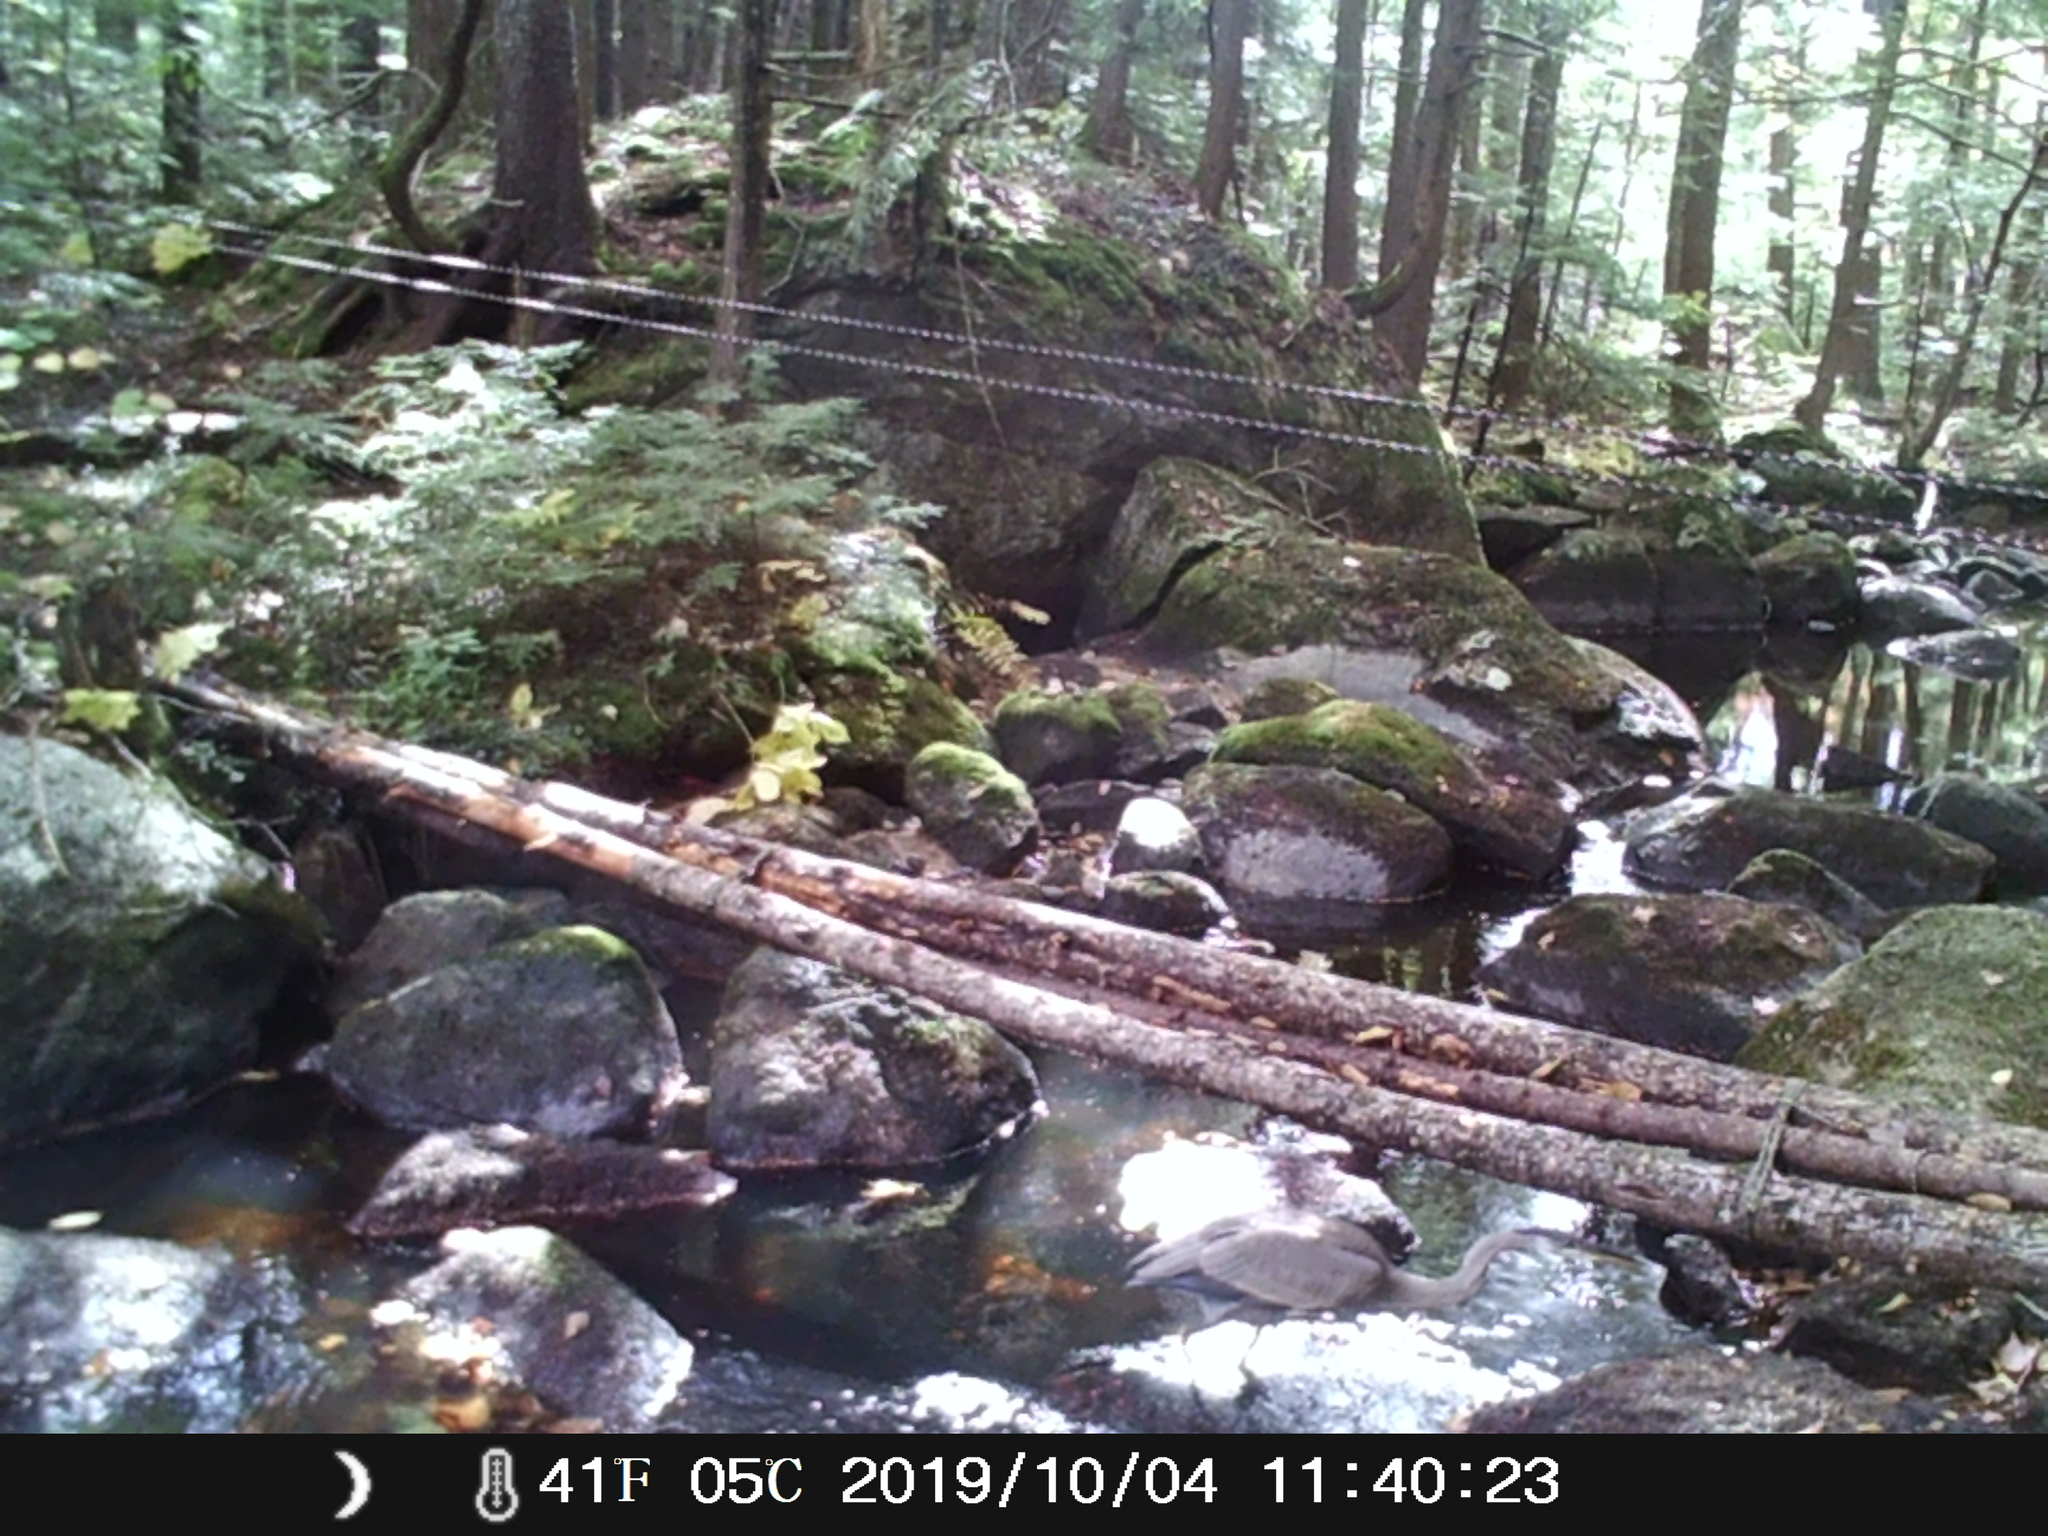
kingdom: Animalia
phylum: Chordata
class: Aves
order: Pelecaniformes
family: Ardeidae
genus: Ardea
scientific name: Ardea herodias
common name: Great blue heron
